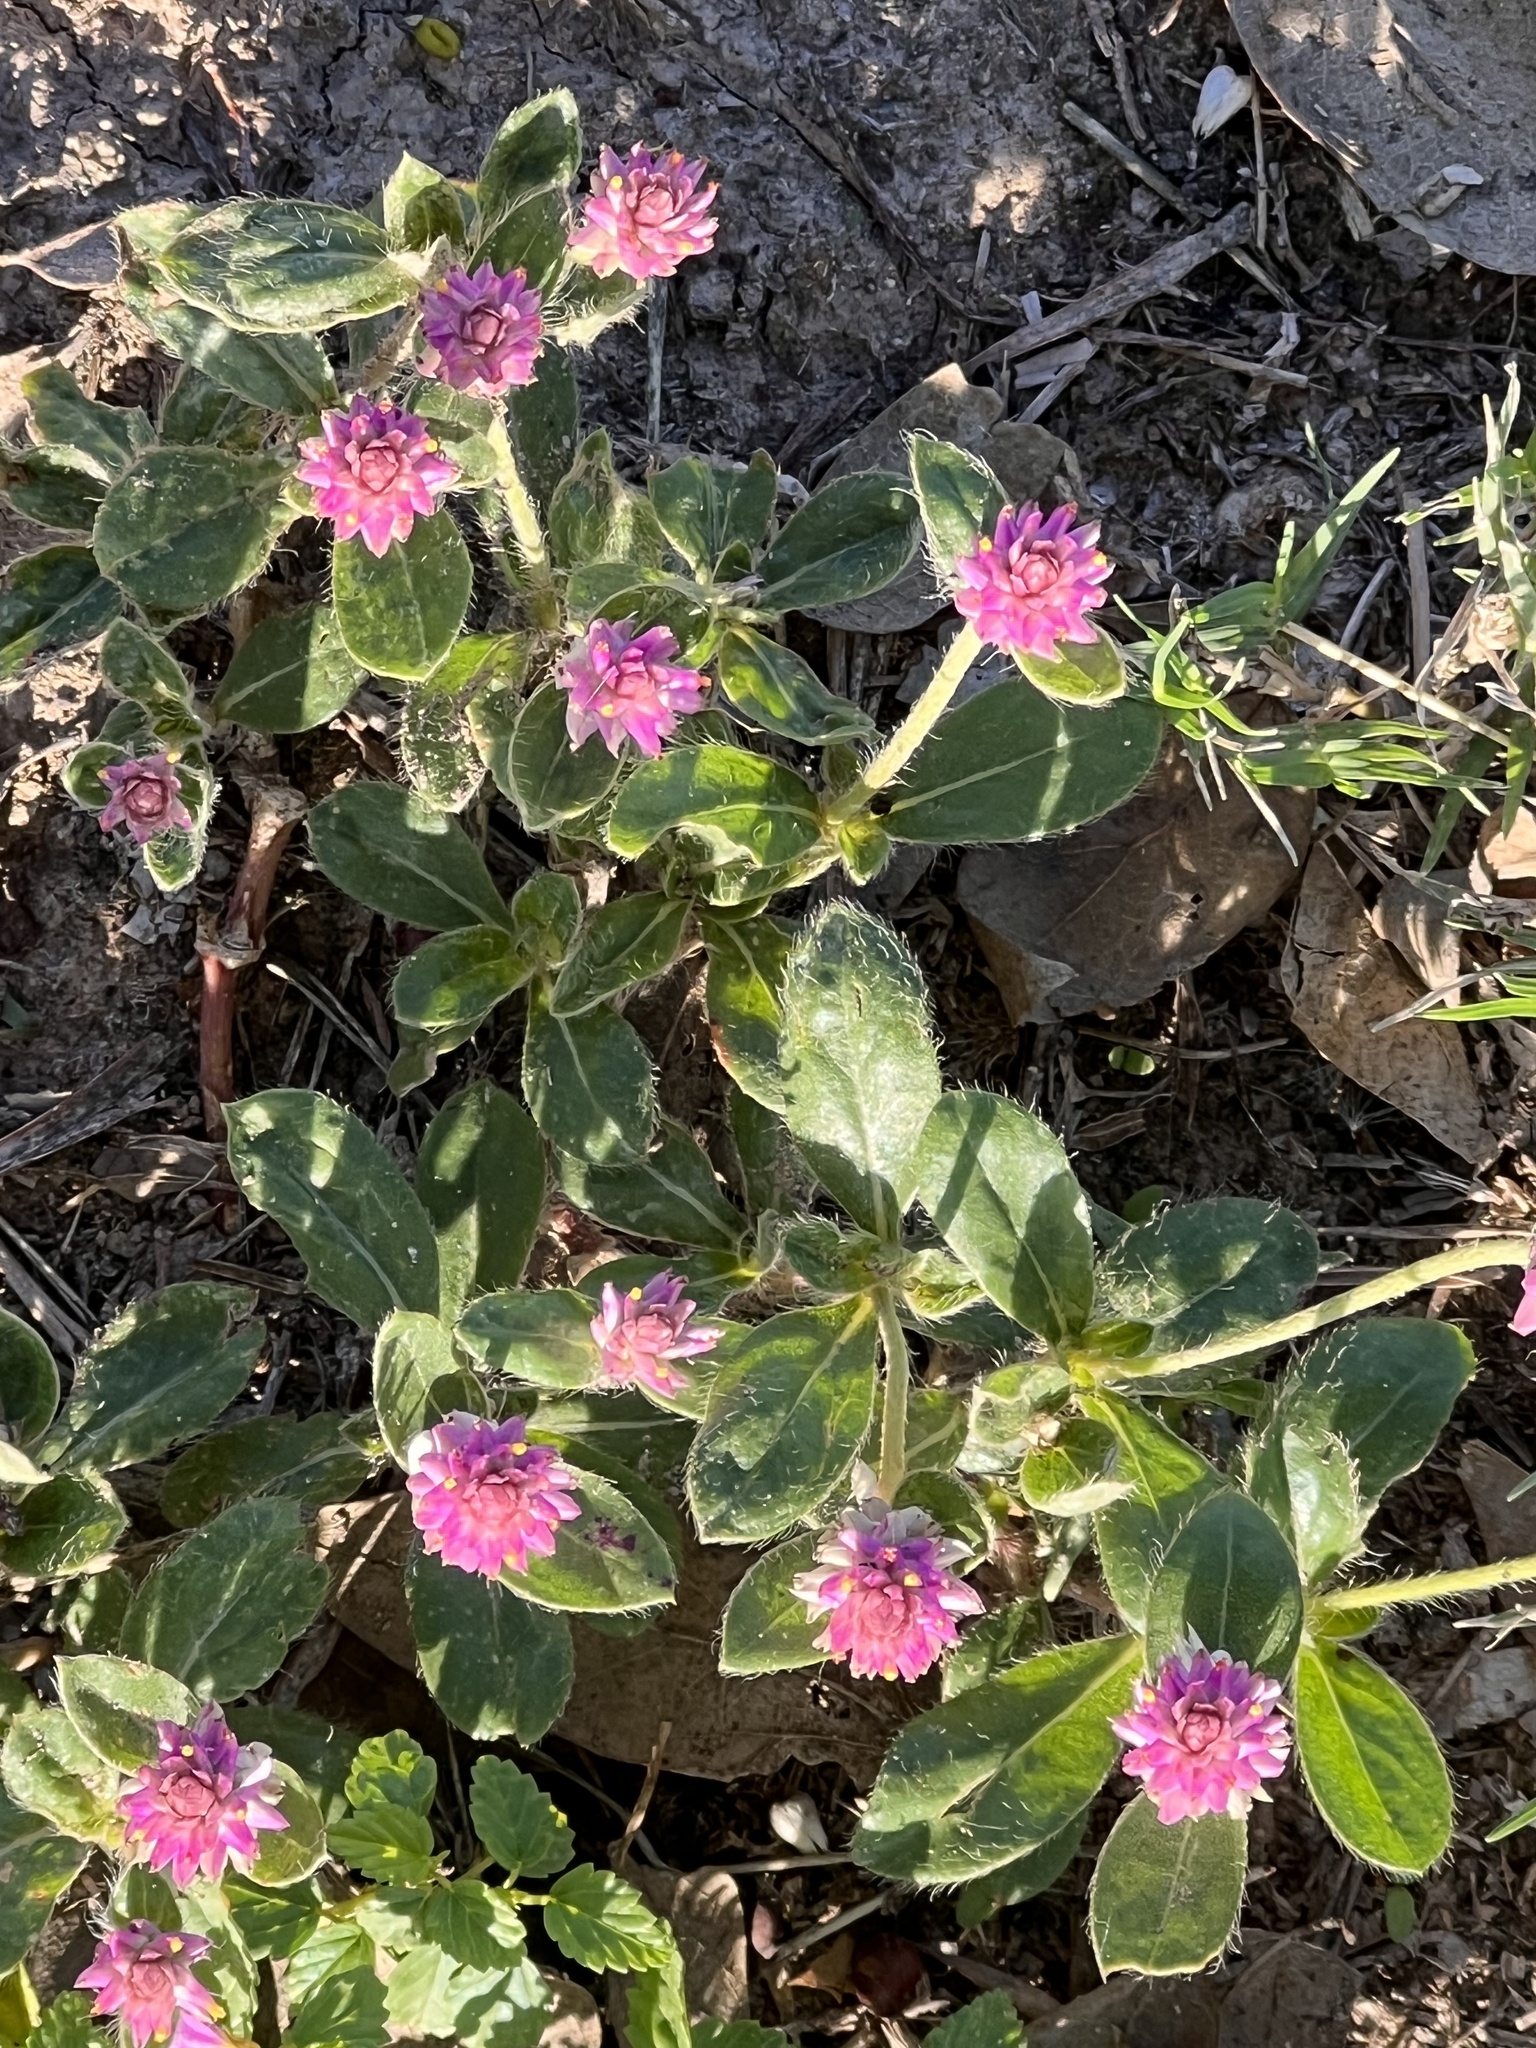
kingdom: Plantae
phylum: Tracheophyta
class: Magnoliopsida
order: Caryophyllales
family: Amaranthaceae
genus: Gomphrena
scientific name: Gomphrena serrata
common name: Arrasa con todo
